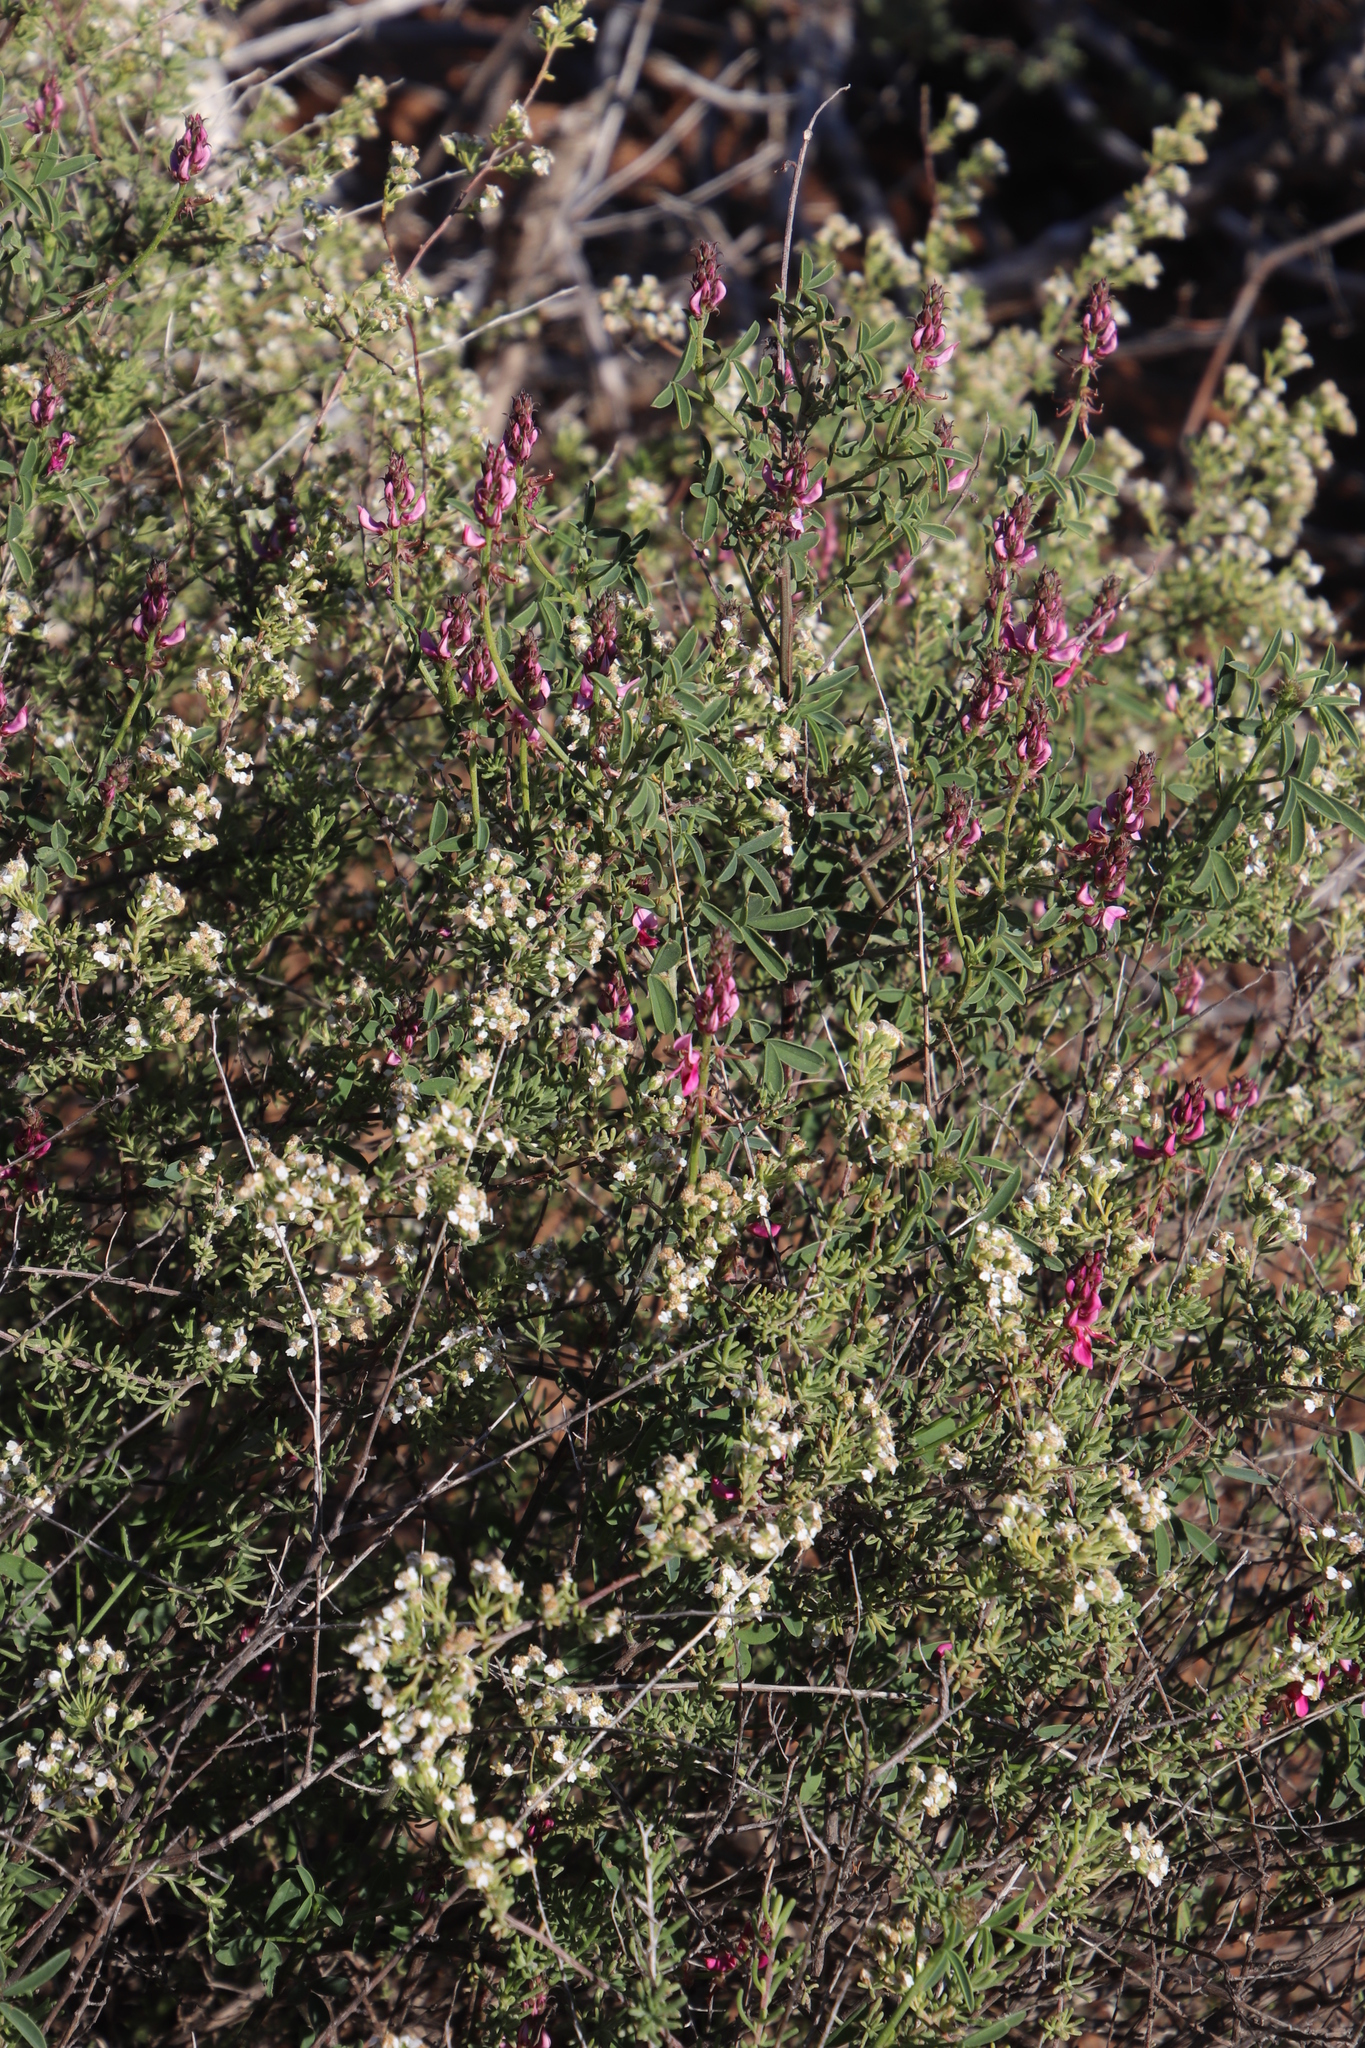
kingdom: Plantae
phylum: Tracheophyta
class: Magnoliopsida
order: Fabales
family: Fabaceae
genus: Indigofera
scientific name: Indigofera intermedia
